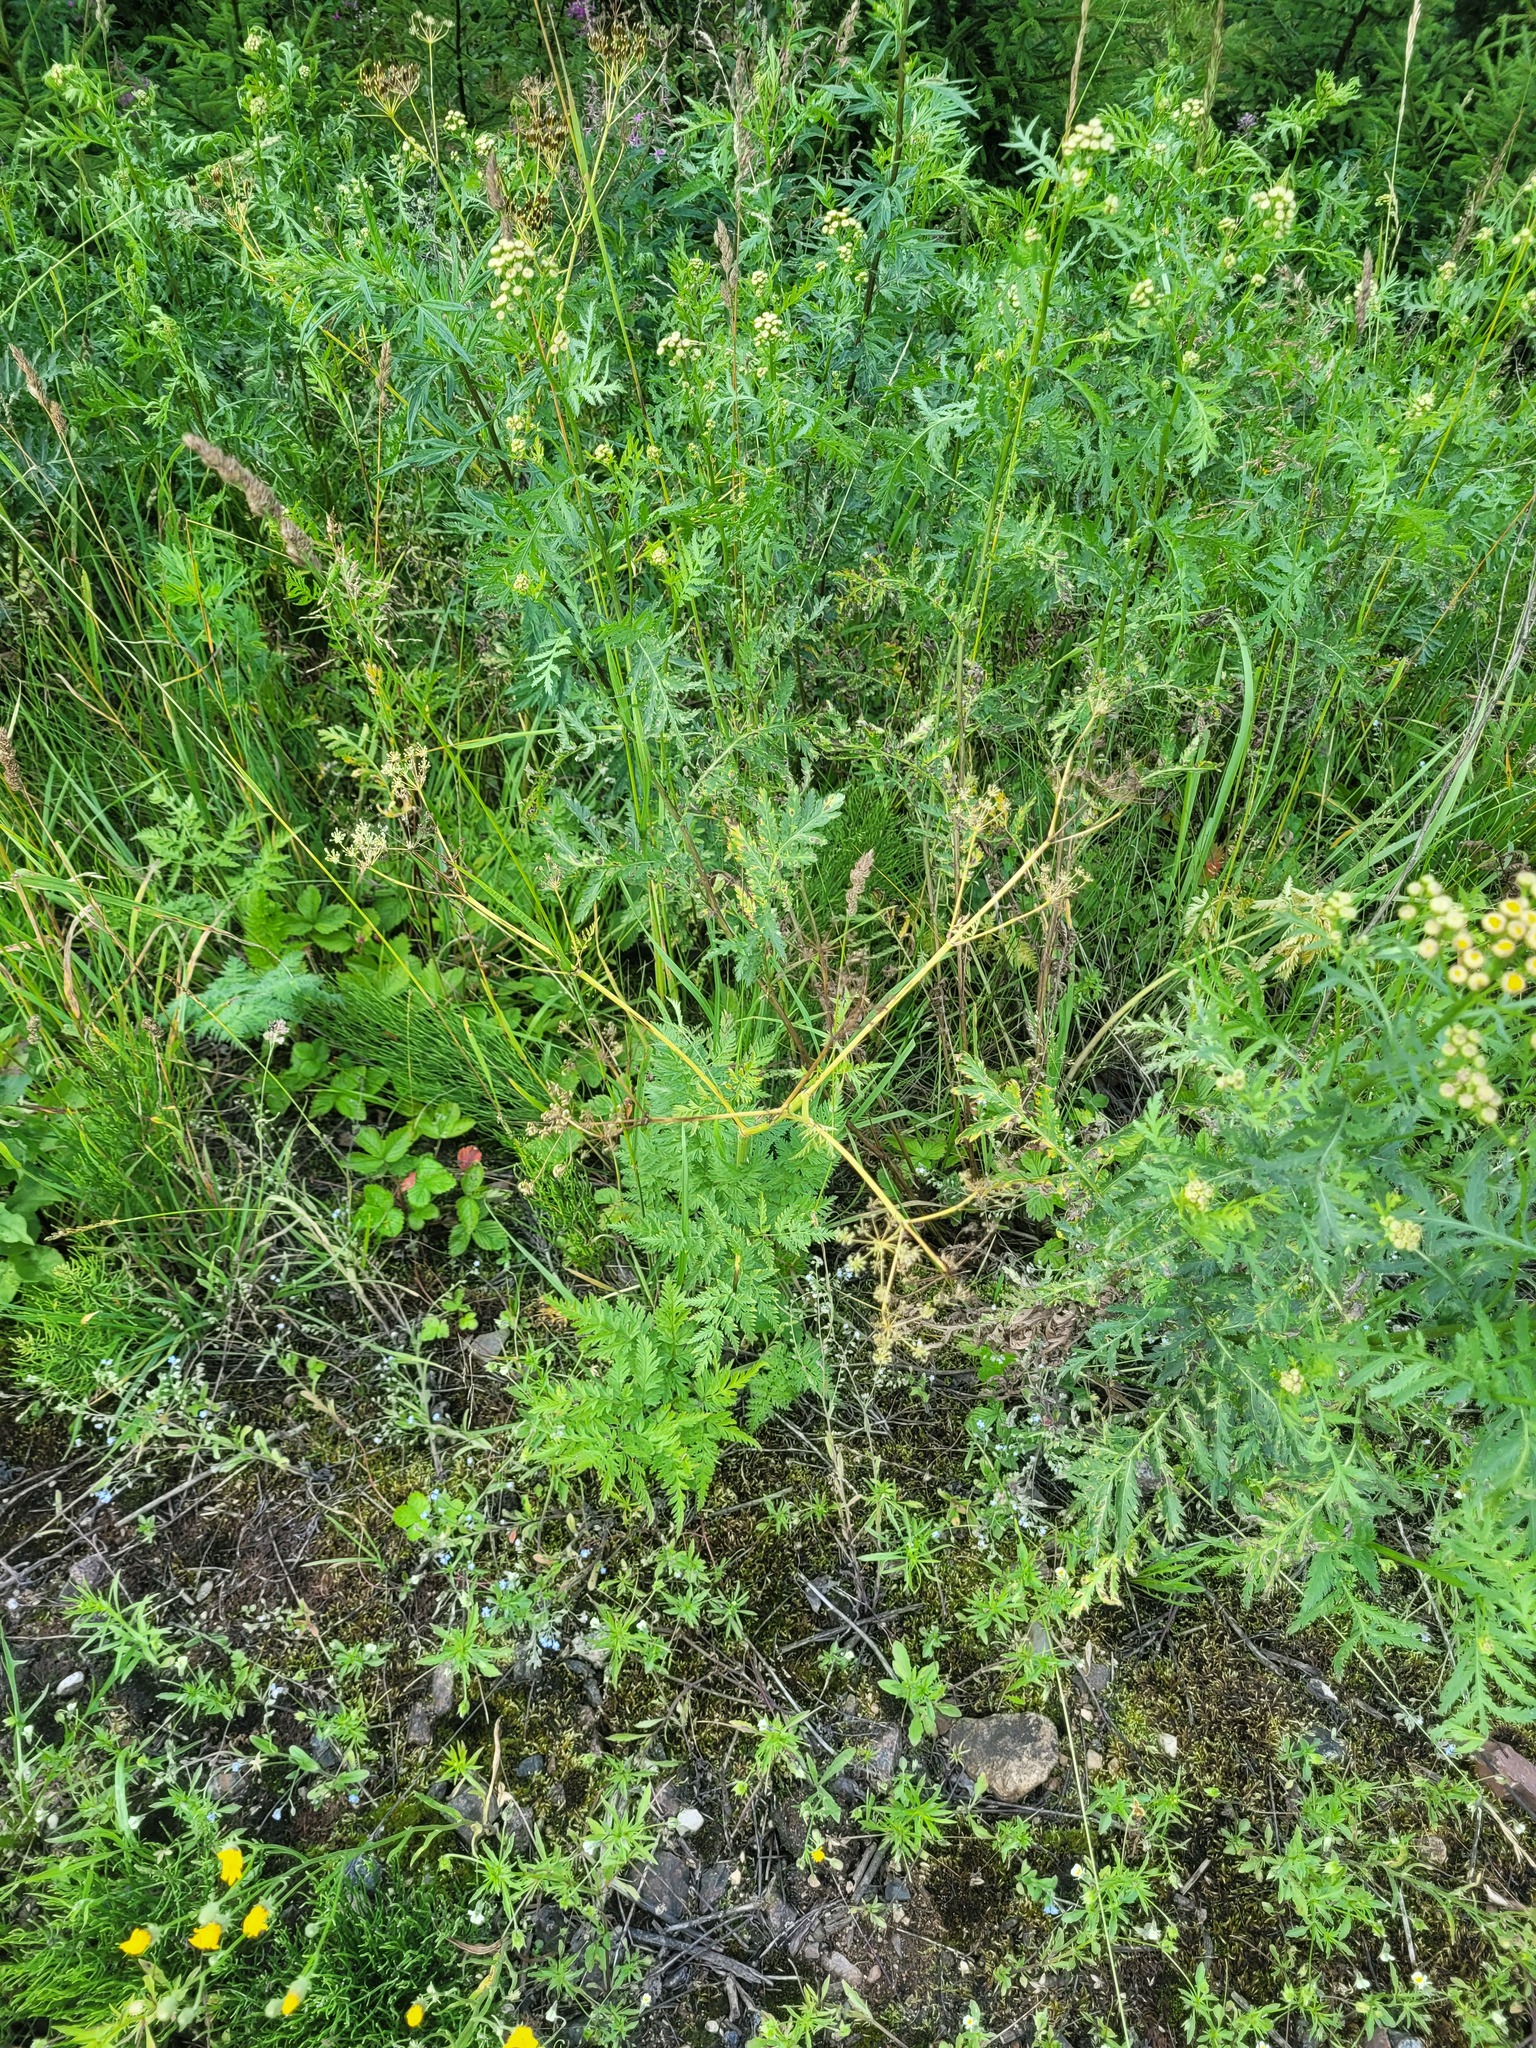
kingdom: Plantae
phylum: Tracheophyta
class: Magnoliopsida
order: Apiales
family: Apiaceae
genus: Anthriscus
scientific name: Anthriscus sylvestris
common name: Cow parsley
